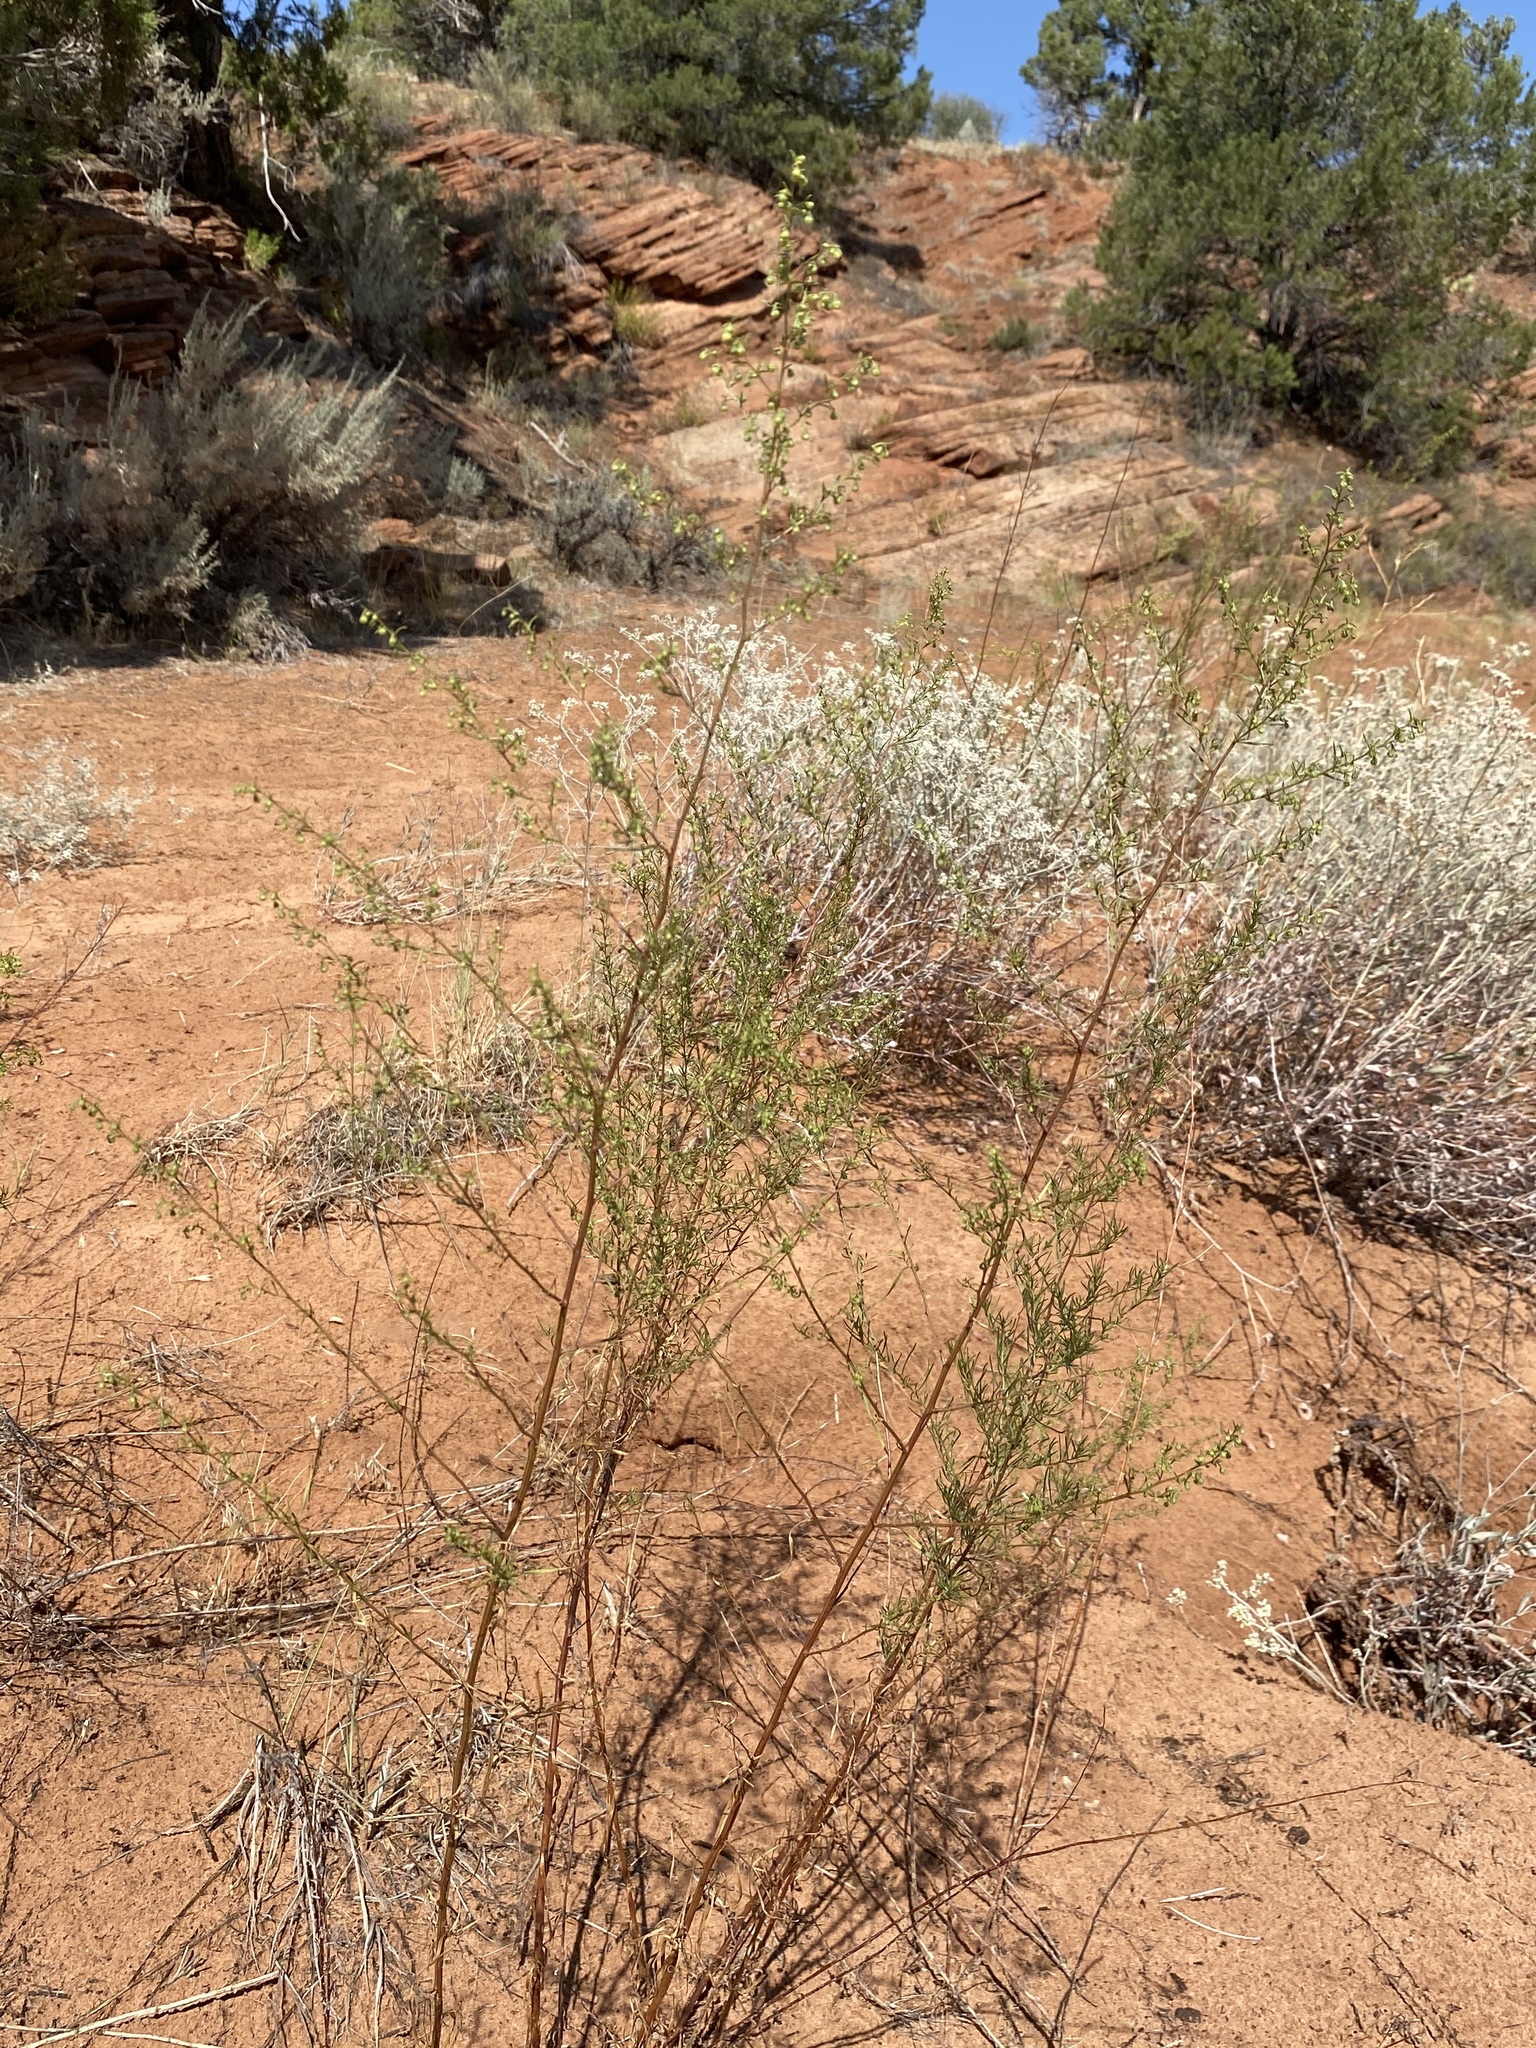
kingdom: Plantae
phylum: Tracheophyta
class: Magnoliopsida
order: Asterales
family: Asteraceae
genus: Artemisia
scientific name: Artemisia dracunculus
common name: Tarragon
